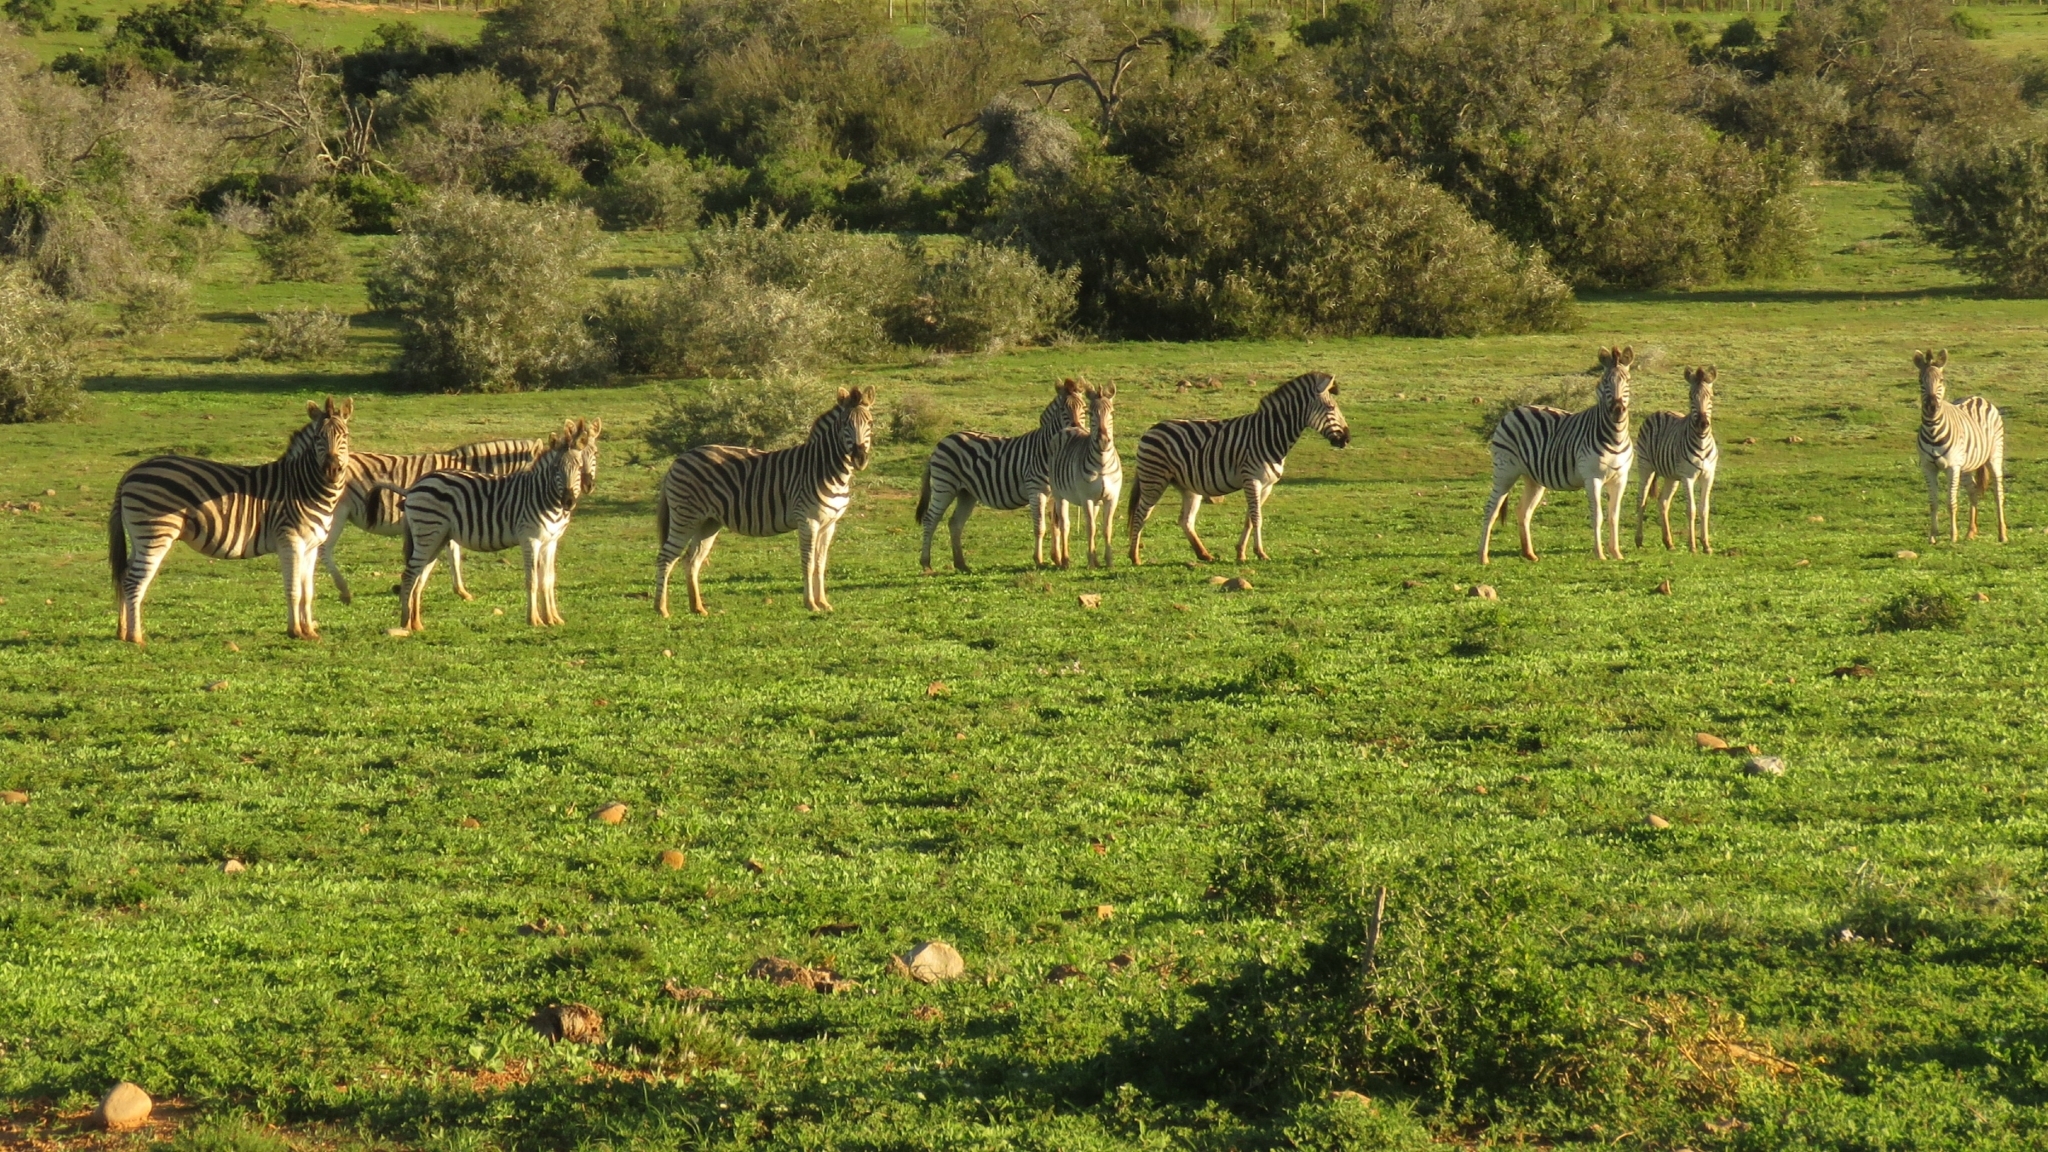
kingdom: Animalia
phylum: Chordata
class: Mammalia
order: Perissodactyla
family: Equidae
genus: Equus
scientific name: Equus quagga
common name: Plains zebra
